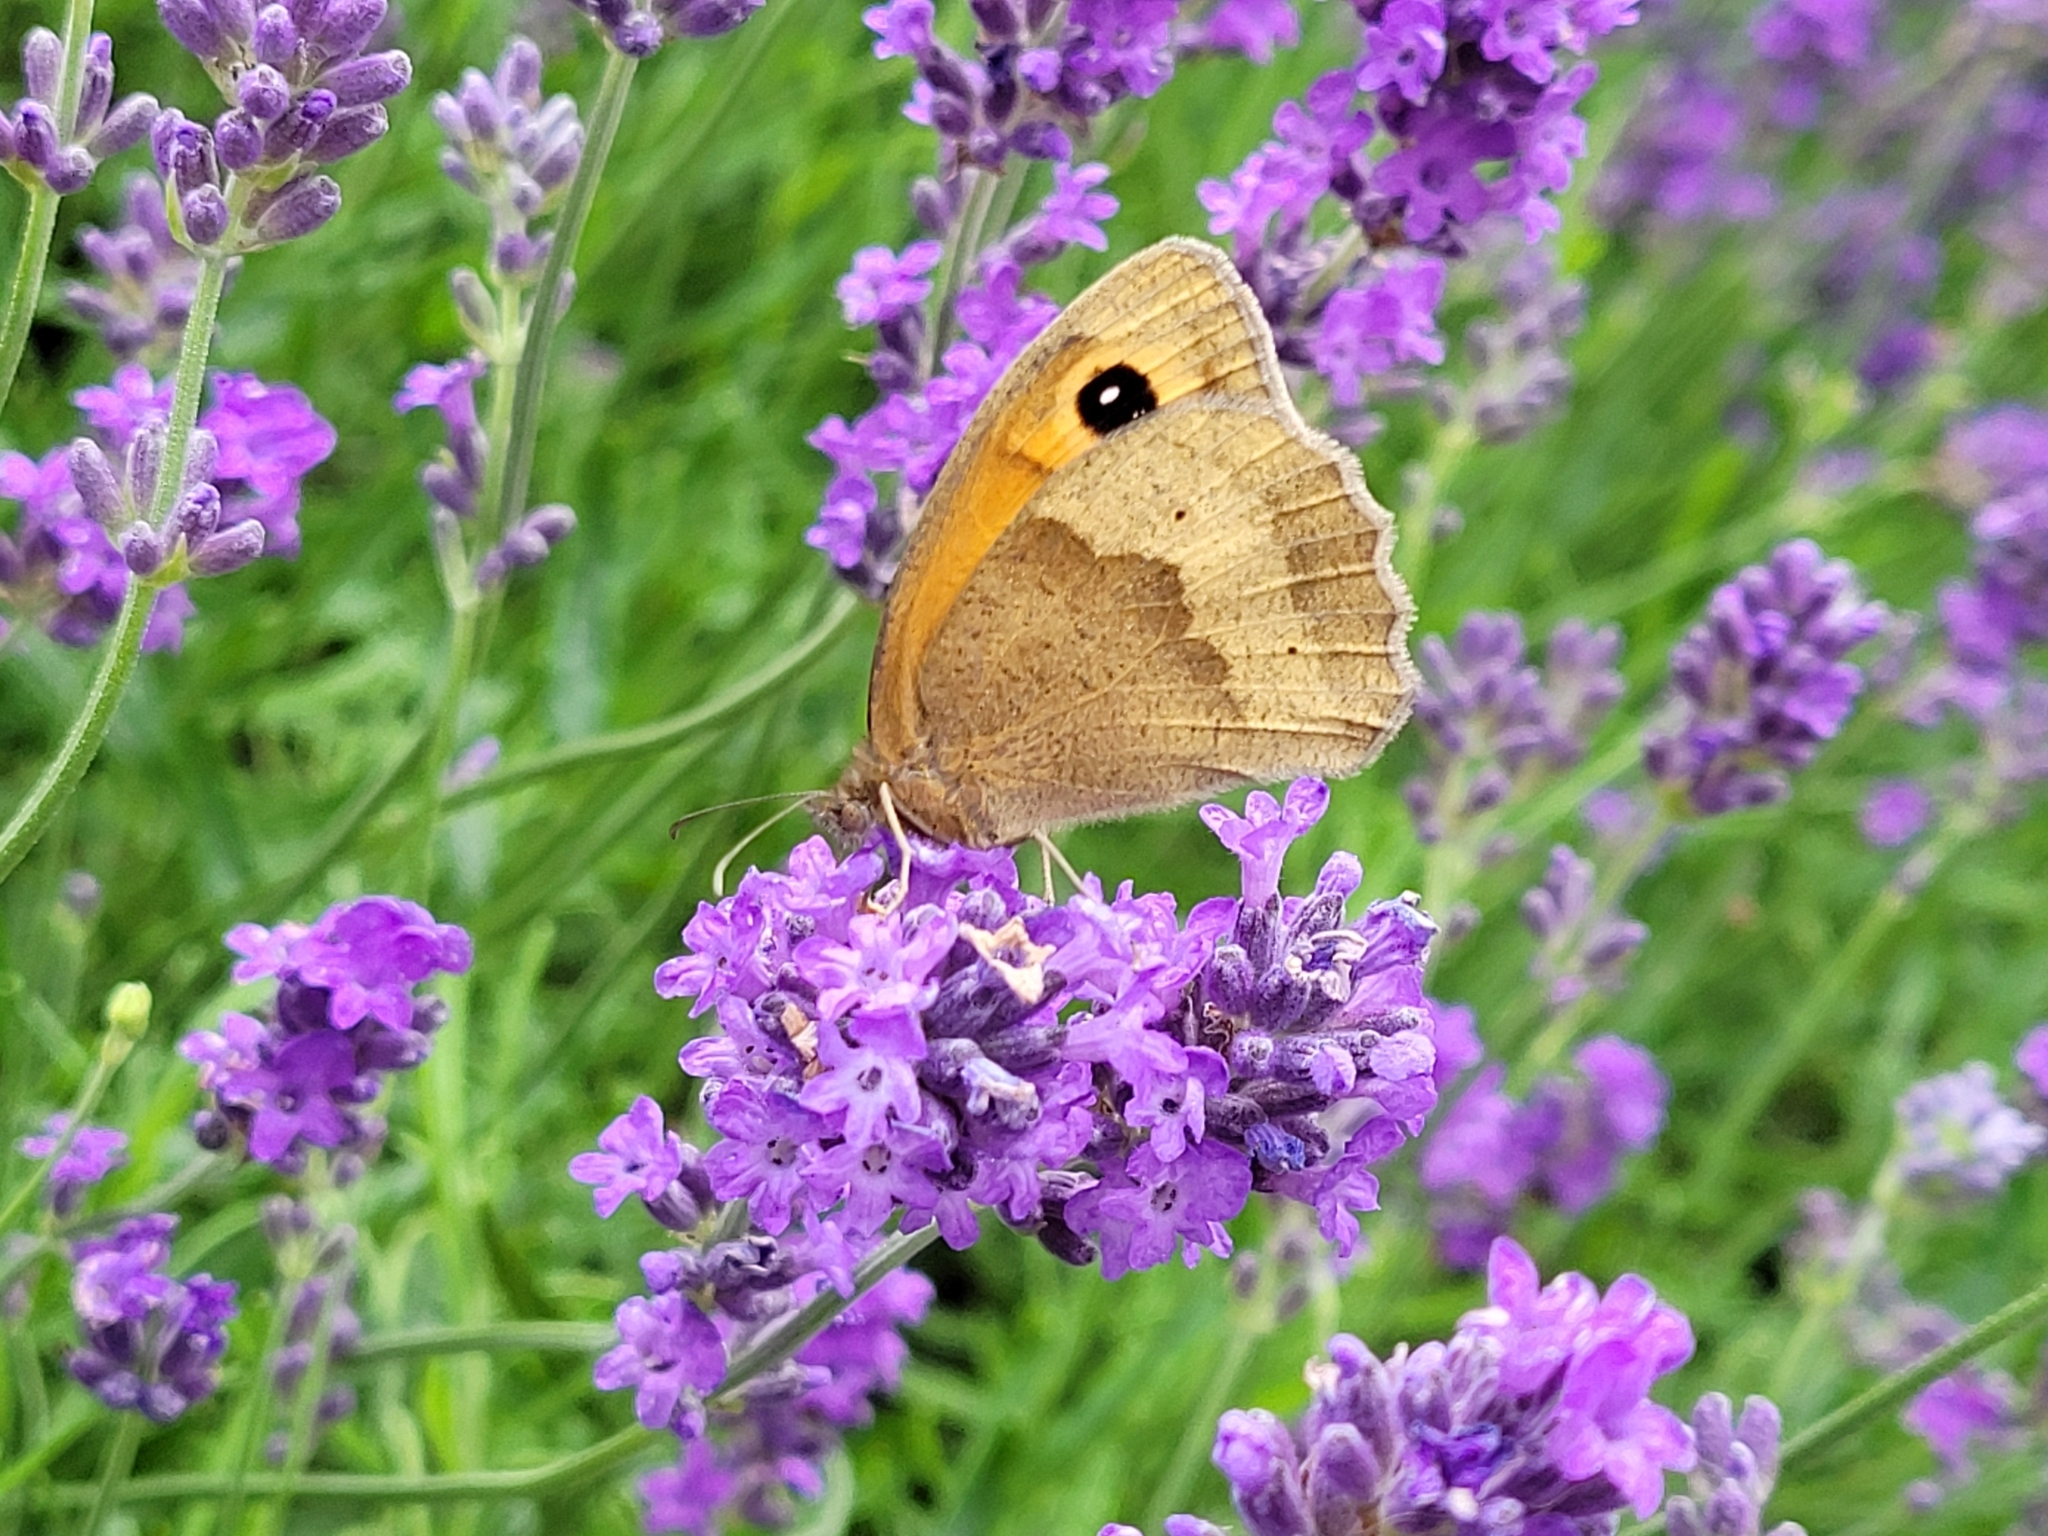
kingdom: Animalia
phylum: Arthropoda
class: Insecta
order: Lepidoptera
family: Nymphalidae
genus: Maniola
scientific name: Maniola jurtina
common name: Meadow brown
